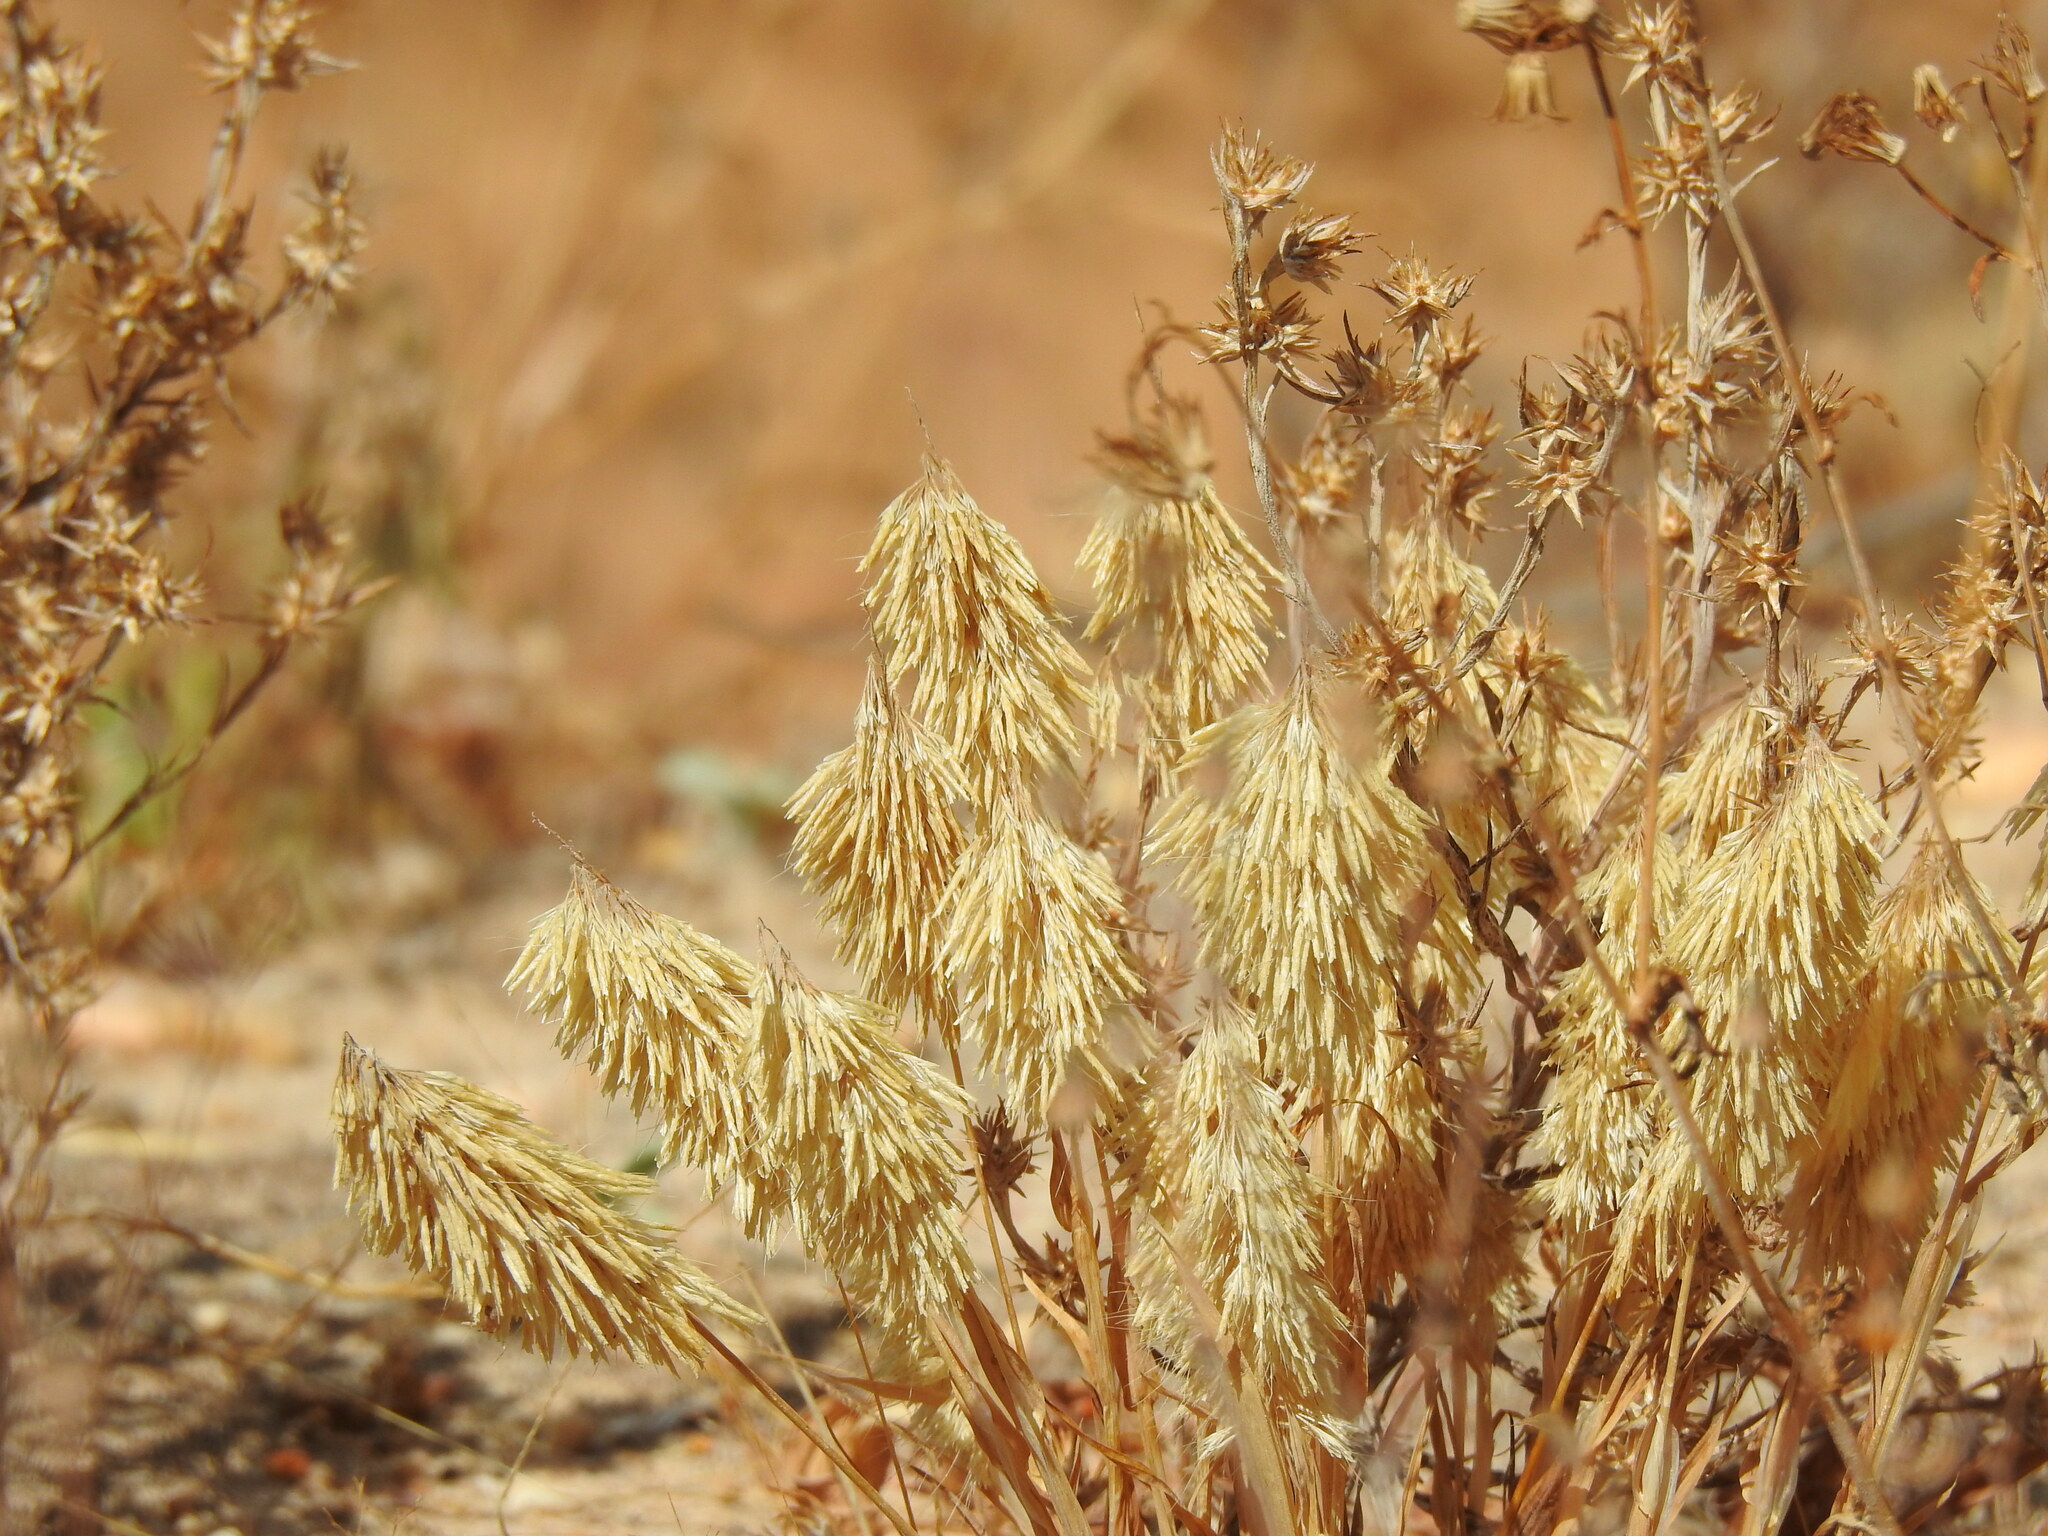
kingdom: Plantae
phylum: Tracheophyta
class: Liliopsida
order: Poales
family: Poaceae
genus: Lamarckia
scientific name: Lamarckia aurea
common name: Golden dog's-tail
